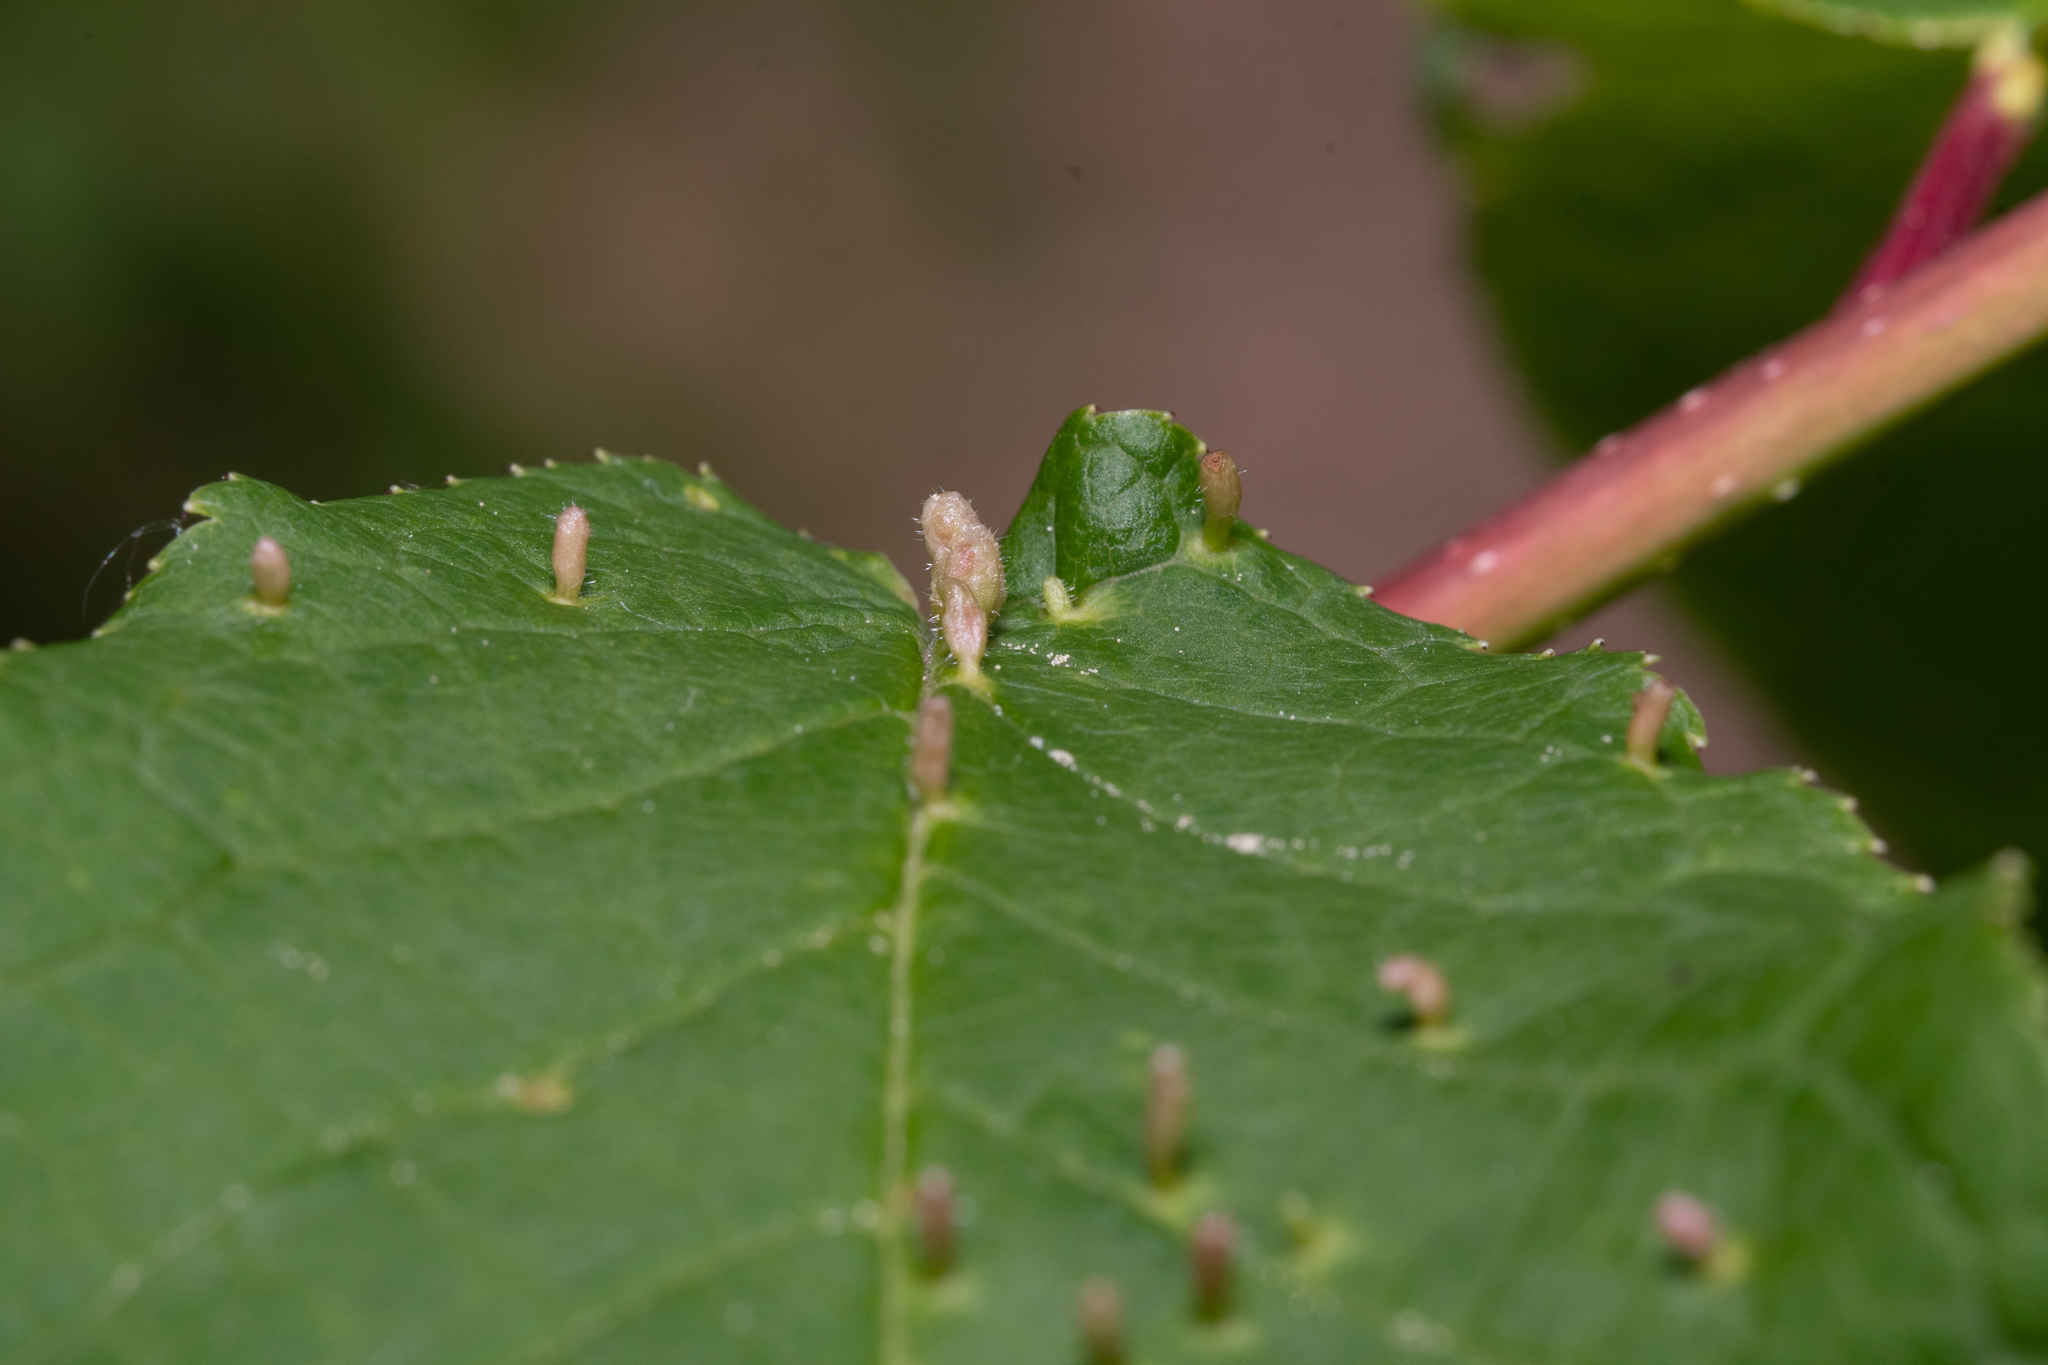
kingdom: Animalia
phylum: Arthropoda
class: Arachnida
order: Trombidiformes
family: Eriophyidae
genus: Phyllocoptes
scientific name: Phyllocoptes eupadi
